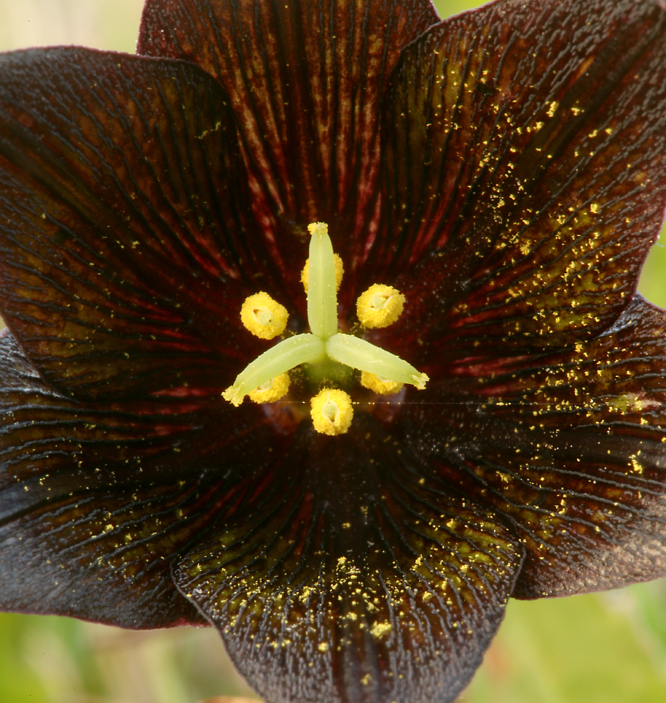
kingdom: Plantae
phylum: Tracheophyta
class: Liliopsida
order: Liliales
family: Liliaceae
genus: Fritillaria
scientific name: Fritillaria biflora
